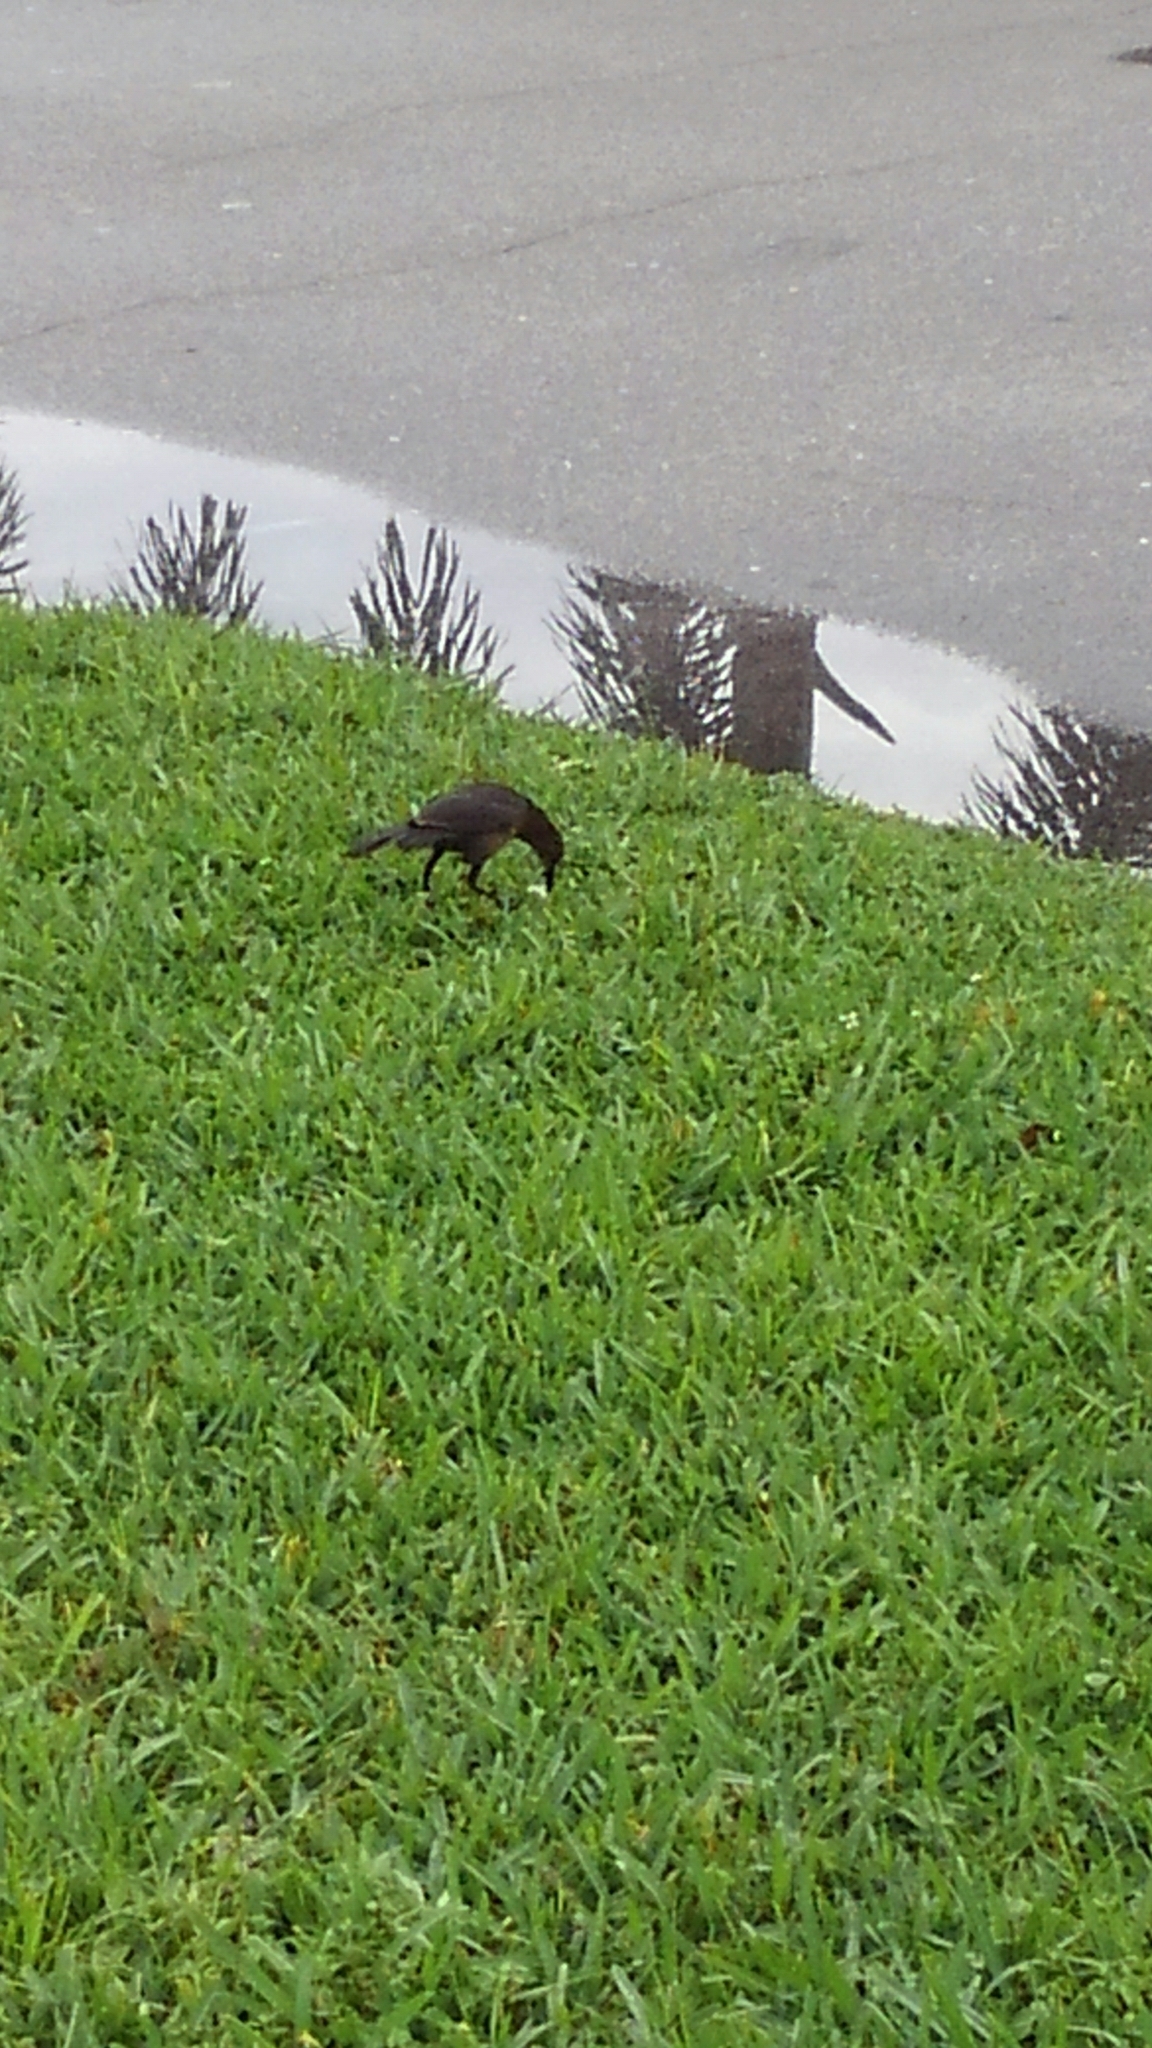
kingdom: Animalia
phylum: Chordata
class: Aves
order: Passeriformes
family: Icteridae
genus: Quiscalus
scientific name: Quiscalus major
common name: Boat-tailed grackle
